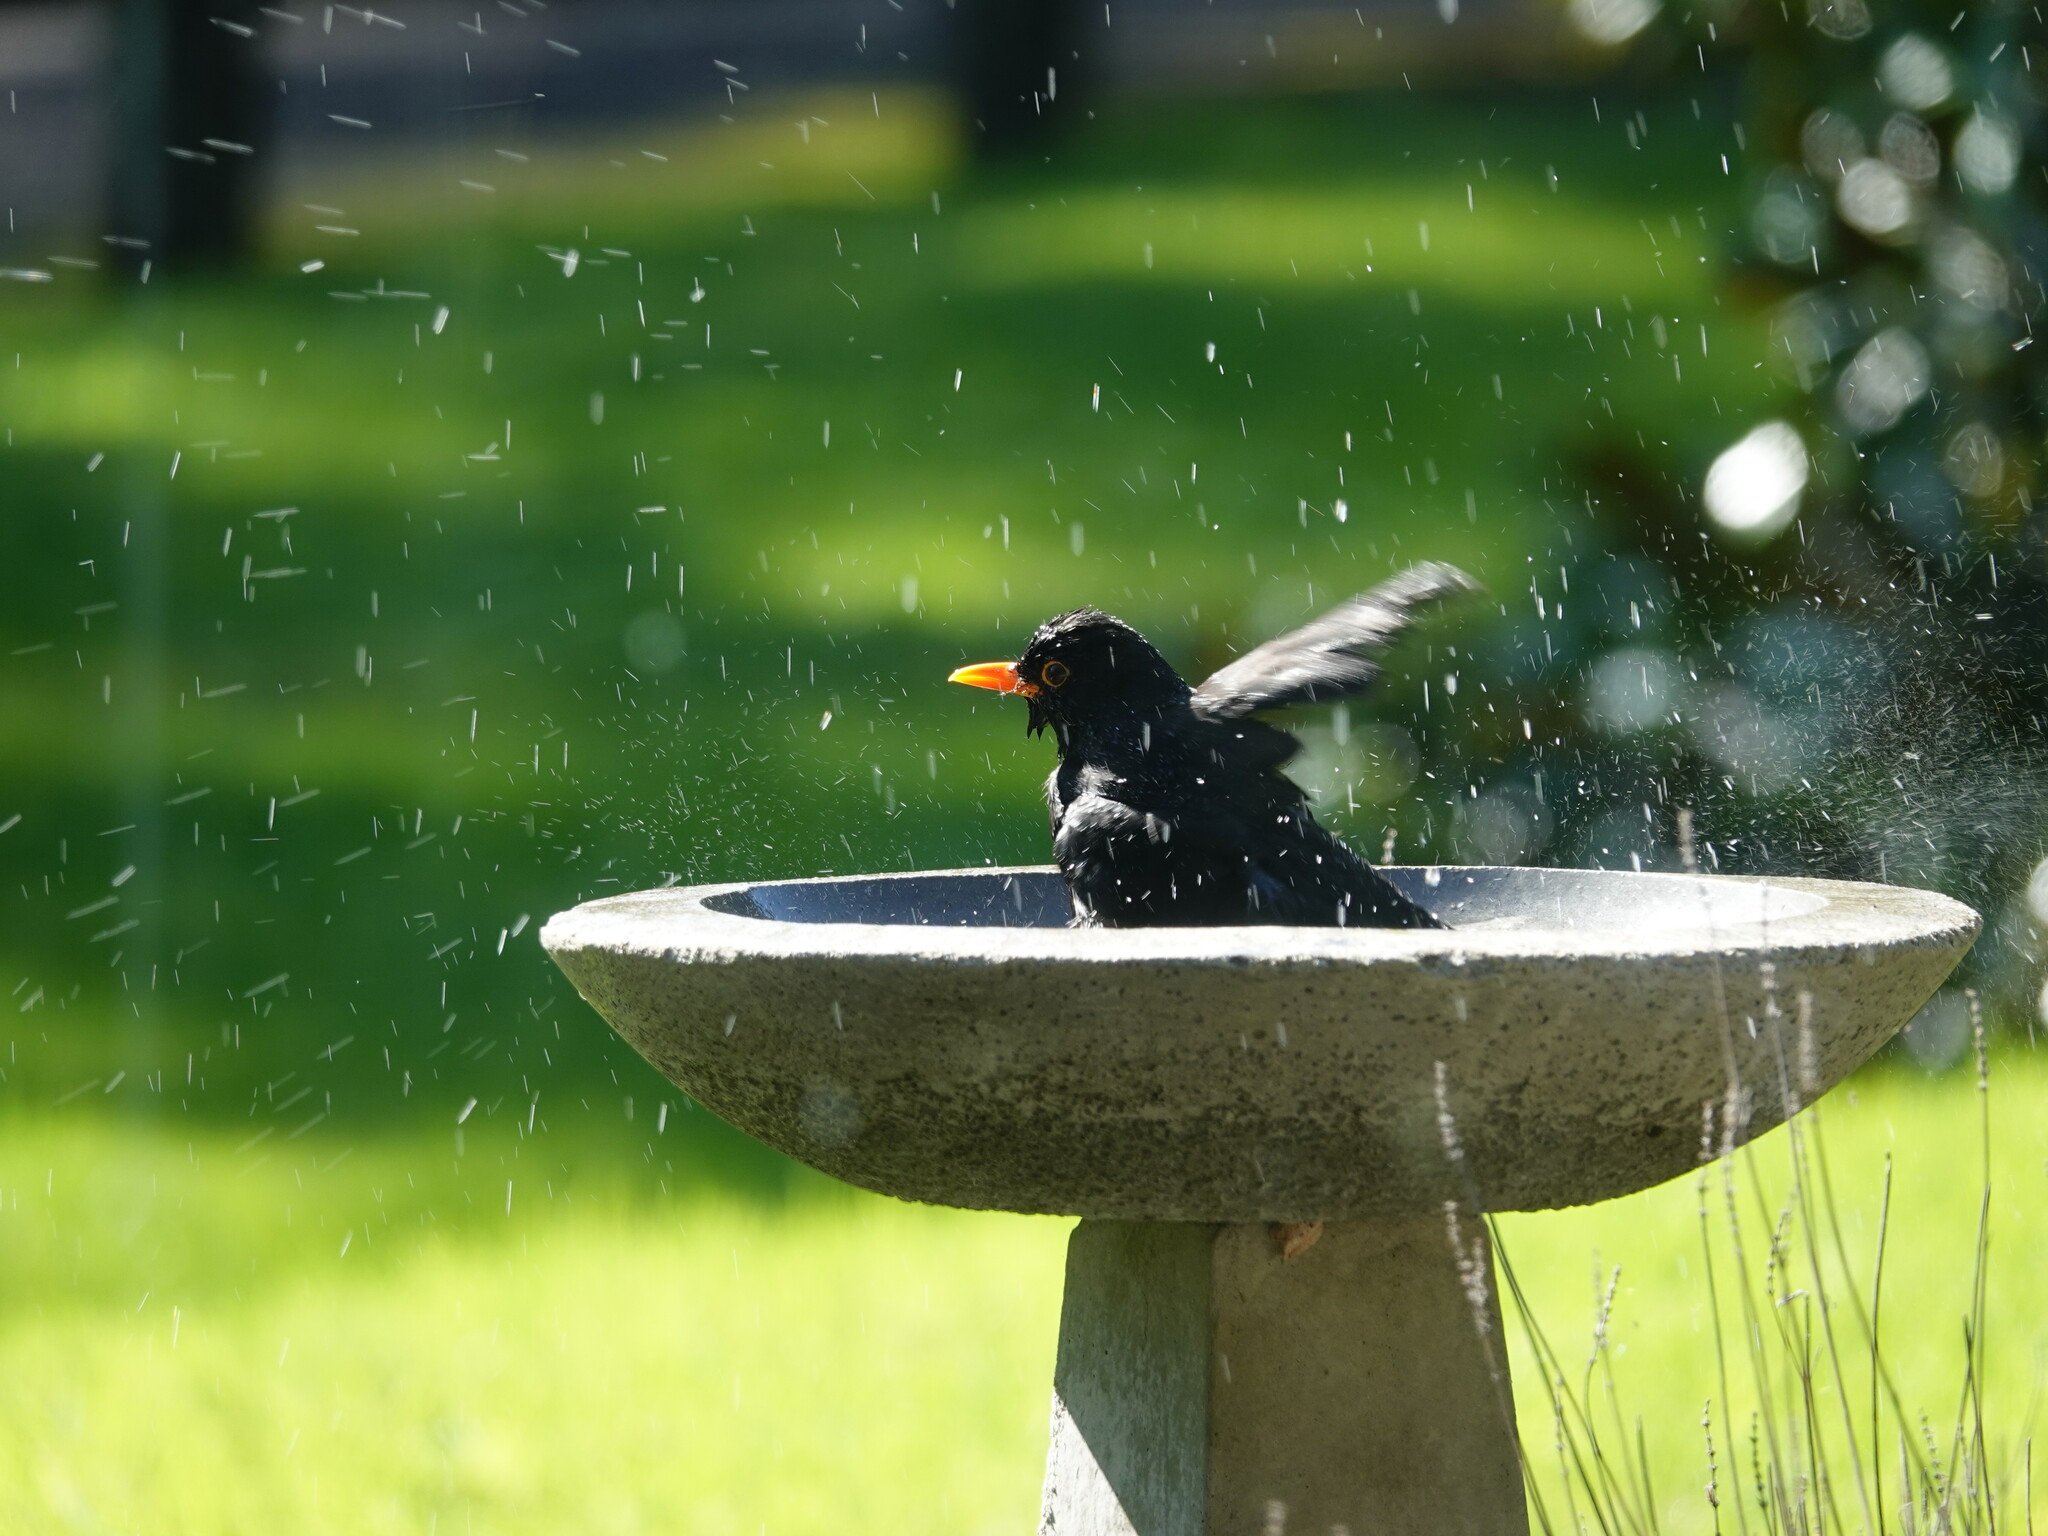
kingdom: Animalia
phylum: Chordata
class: Aves
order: Passeriformes
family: Turdidae
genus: Turdus
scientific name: Turdus merula
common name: Common blackbird
